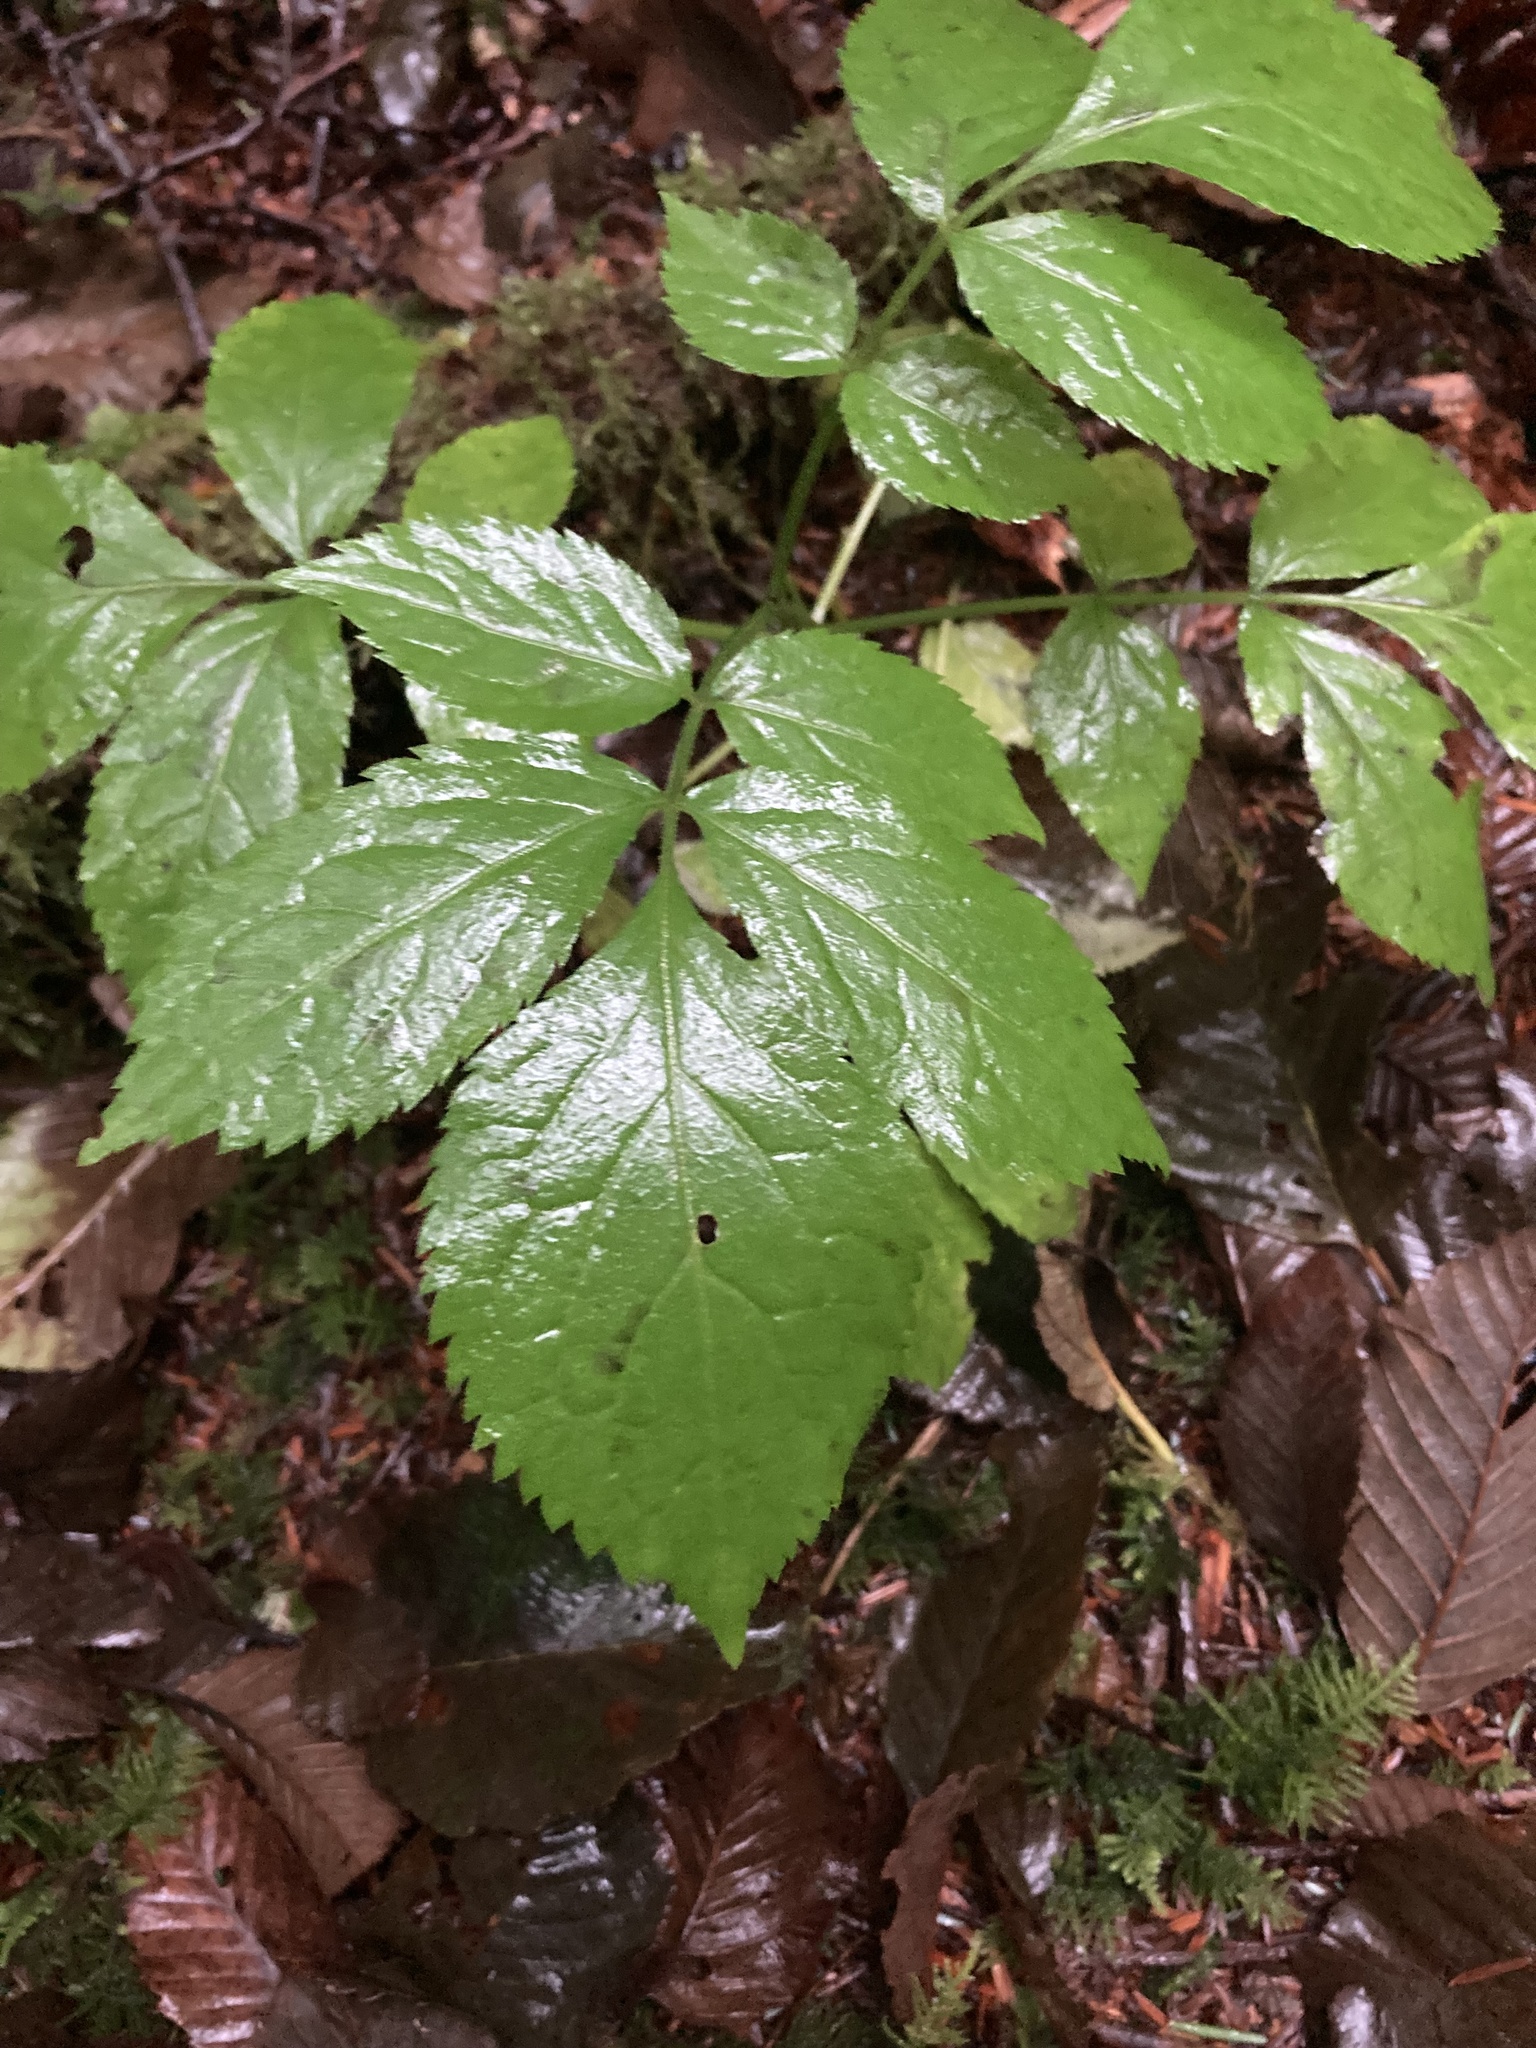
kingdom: Plantae
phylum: Tracheophyta
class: Magnoliopsida
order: Dipsacales
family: Viburnaceae
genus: Sambucus
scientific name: Sambucus racemosa
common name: Red-berried elder
